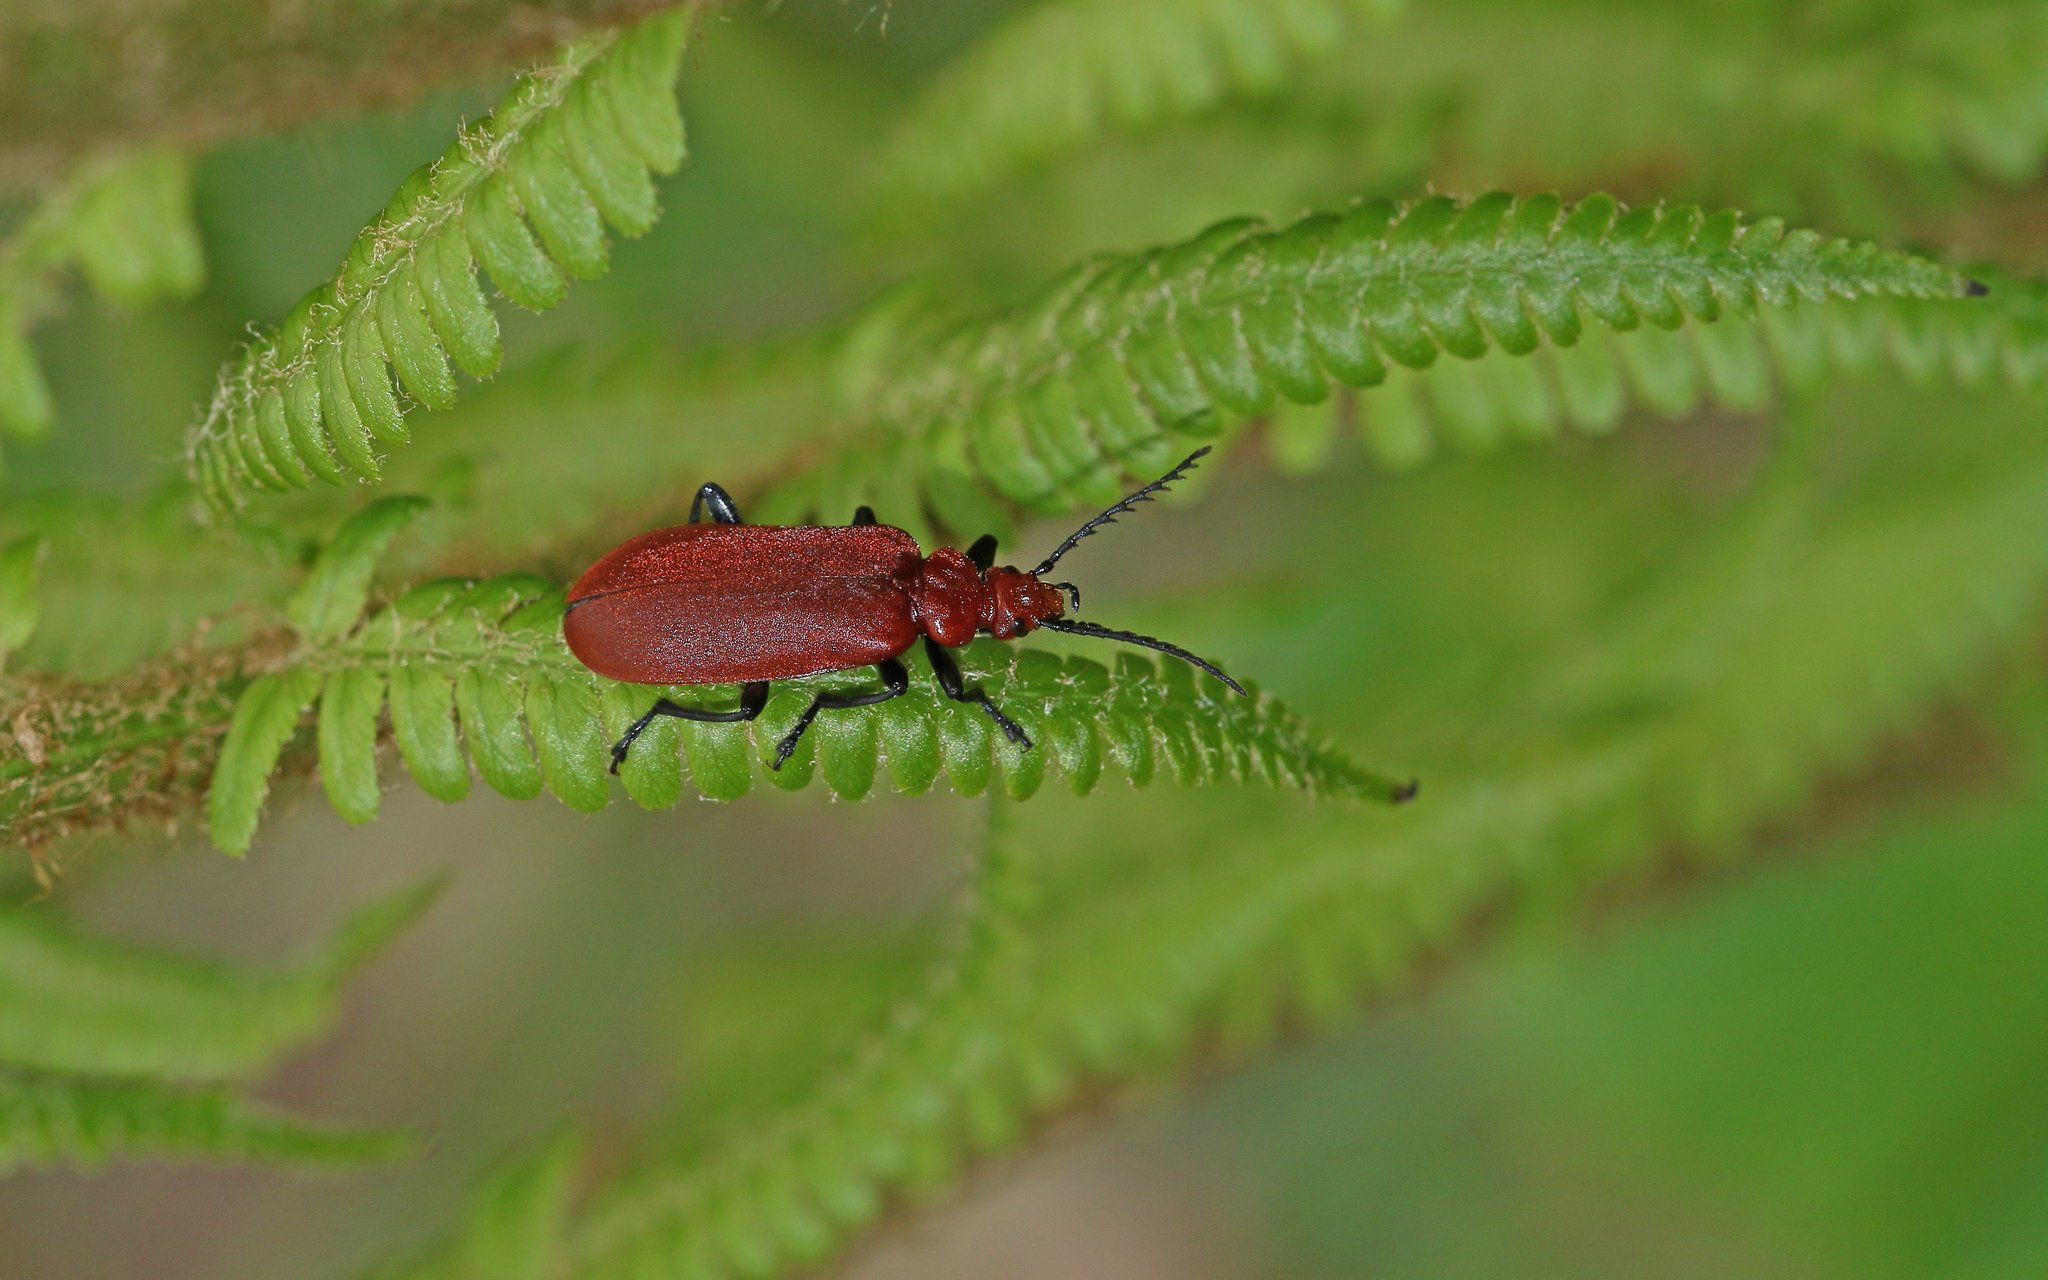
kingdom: Animalia
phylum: Arthropoda
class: Insecta
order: Coleoptera
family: Pyrochroidae
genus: Pyrochroa
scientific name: Pyrochroa serraticornis
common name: Red-headed cardinal beetle
